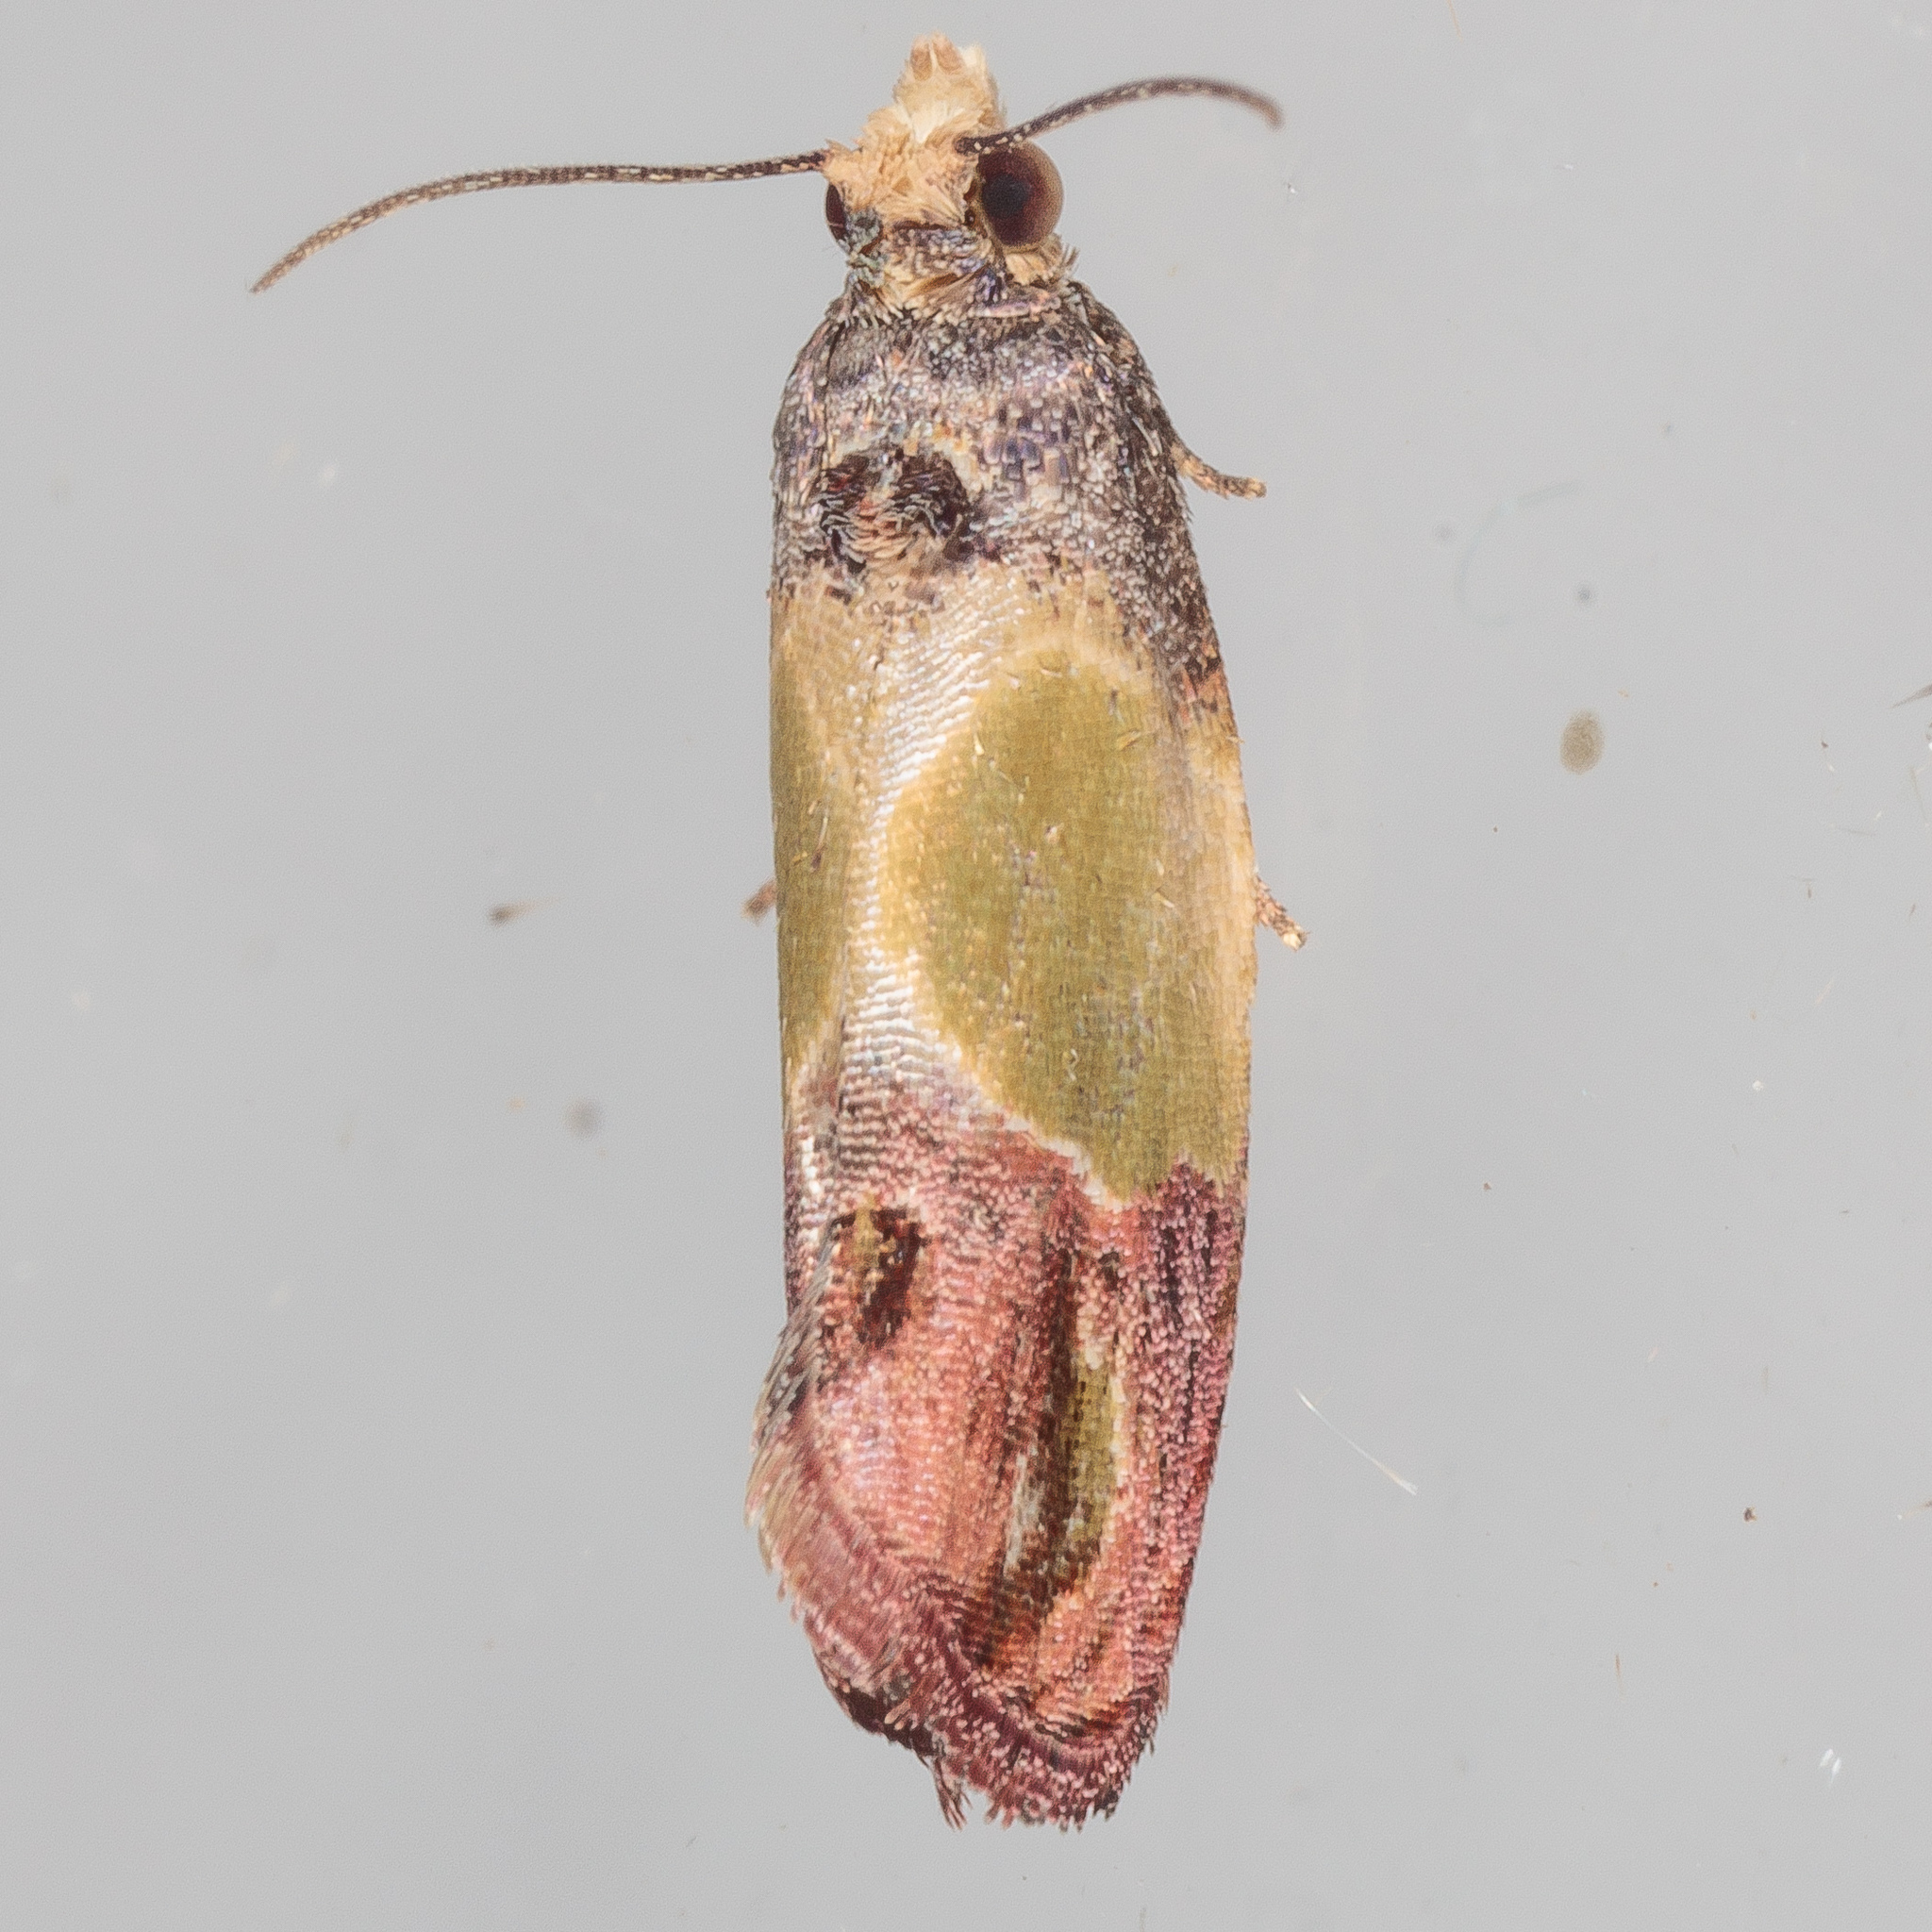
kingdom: Animalia
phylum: Arthropoda
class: Insecta
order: Lepidoptera
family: Tortricidae
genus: Eumarozia
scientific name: Eumarozia malachitana
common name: Sculptured moth
